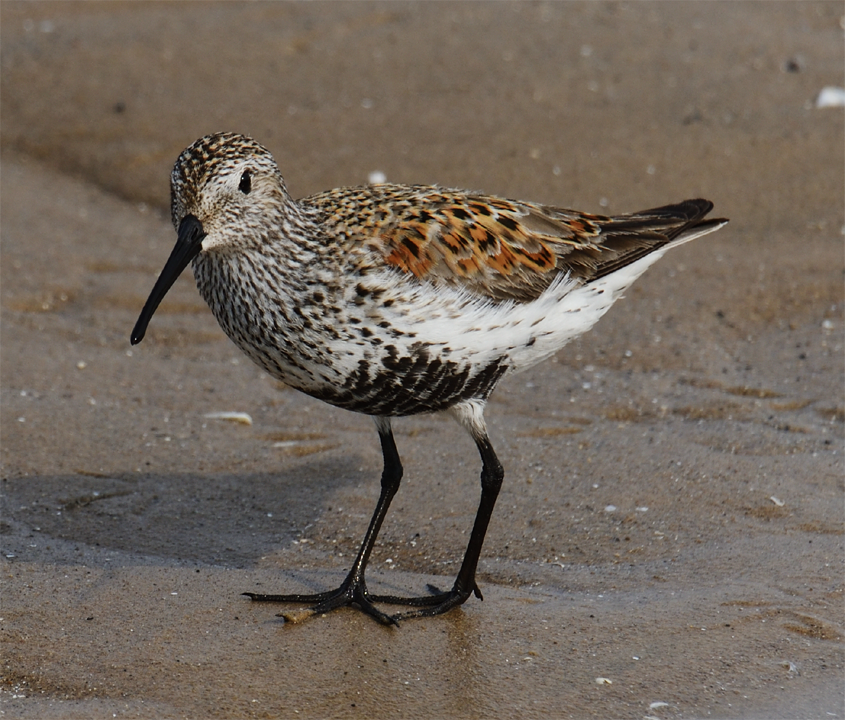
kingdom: Animalia
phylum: Chordata
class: Aves
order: Charadriiformes
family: Scolopacidae
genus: Calidris
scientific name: Calidris alpina
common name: Dunlin
